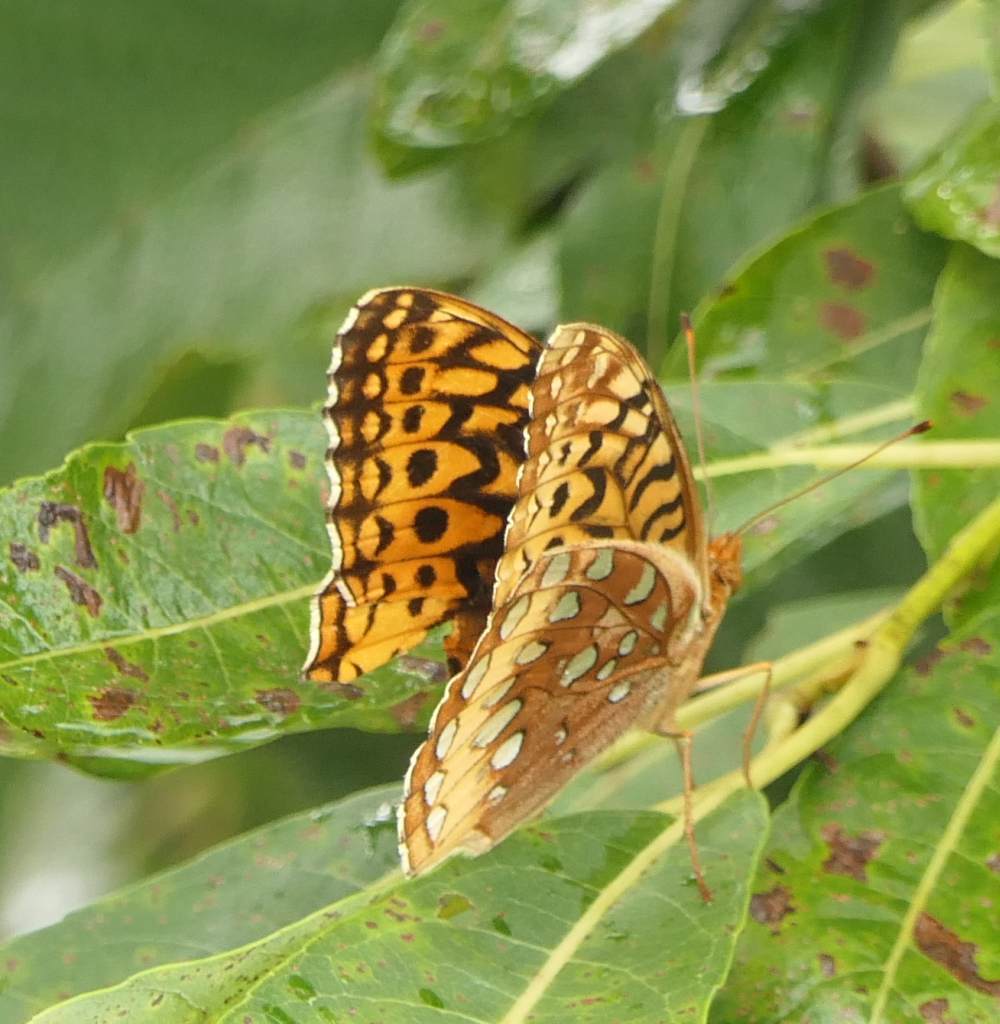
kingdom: Animalia
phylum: Arthropoda
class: Insecta
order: Lepidoptera
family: Nymphalidae
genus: Speyeria
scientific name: Speyeria cybele
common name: Great spangled fritillary
